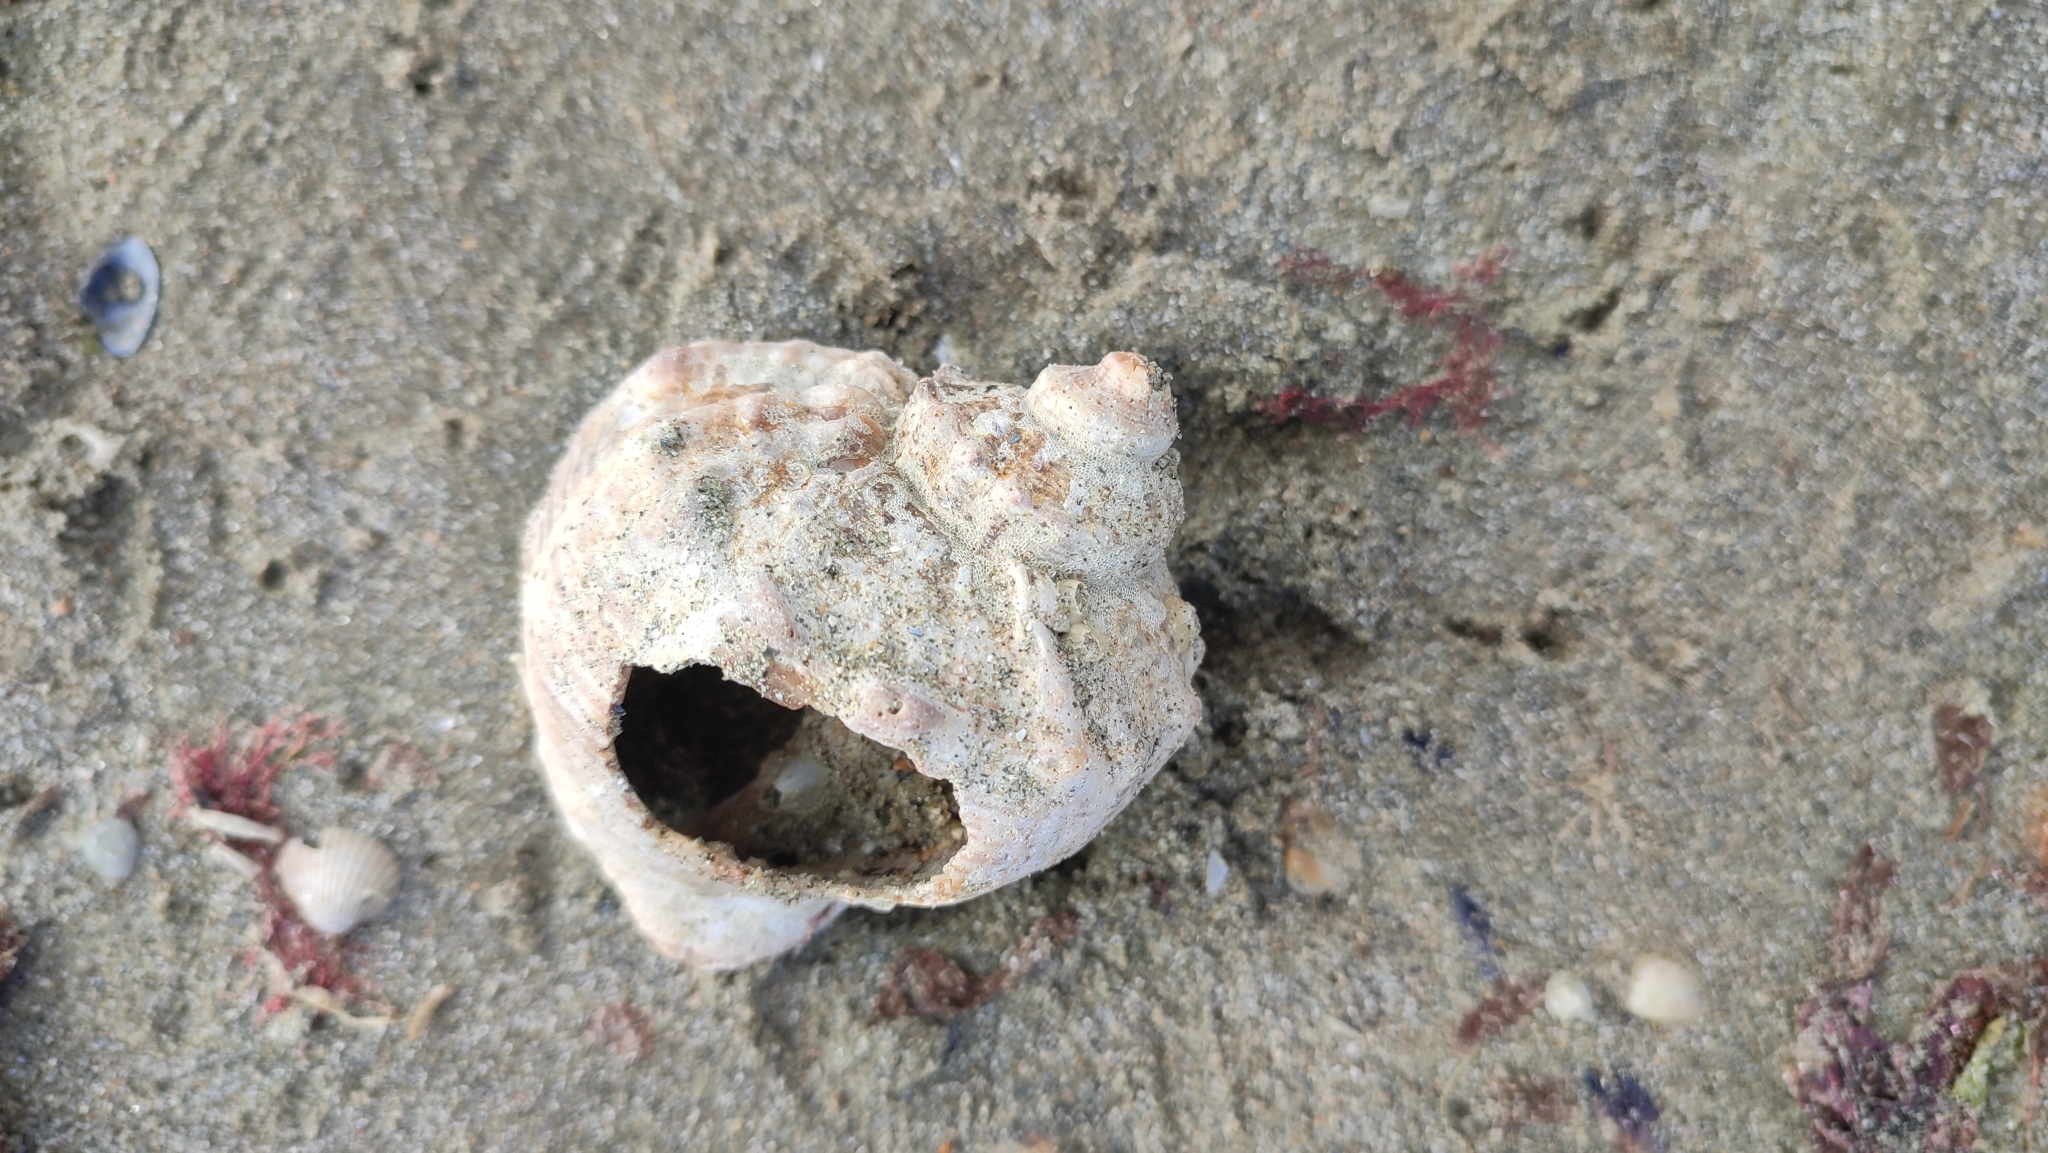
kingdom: Animalia
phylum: Mollusca
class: Gastropoda
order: Neogastropoda
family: Muricidae
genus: Rapana
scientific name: Rapana venosa
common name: Veined rapa whelk
